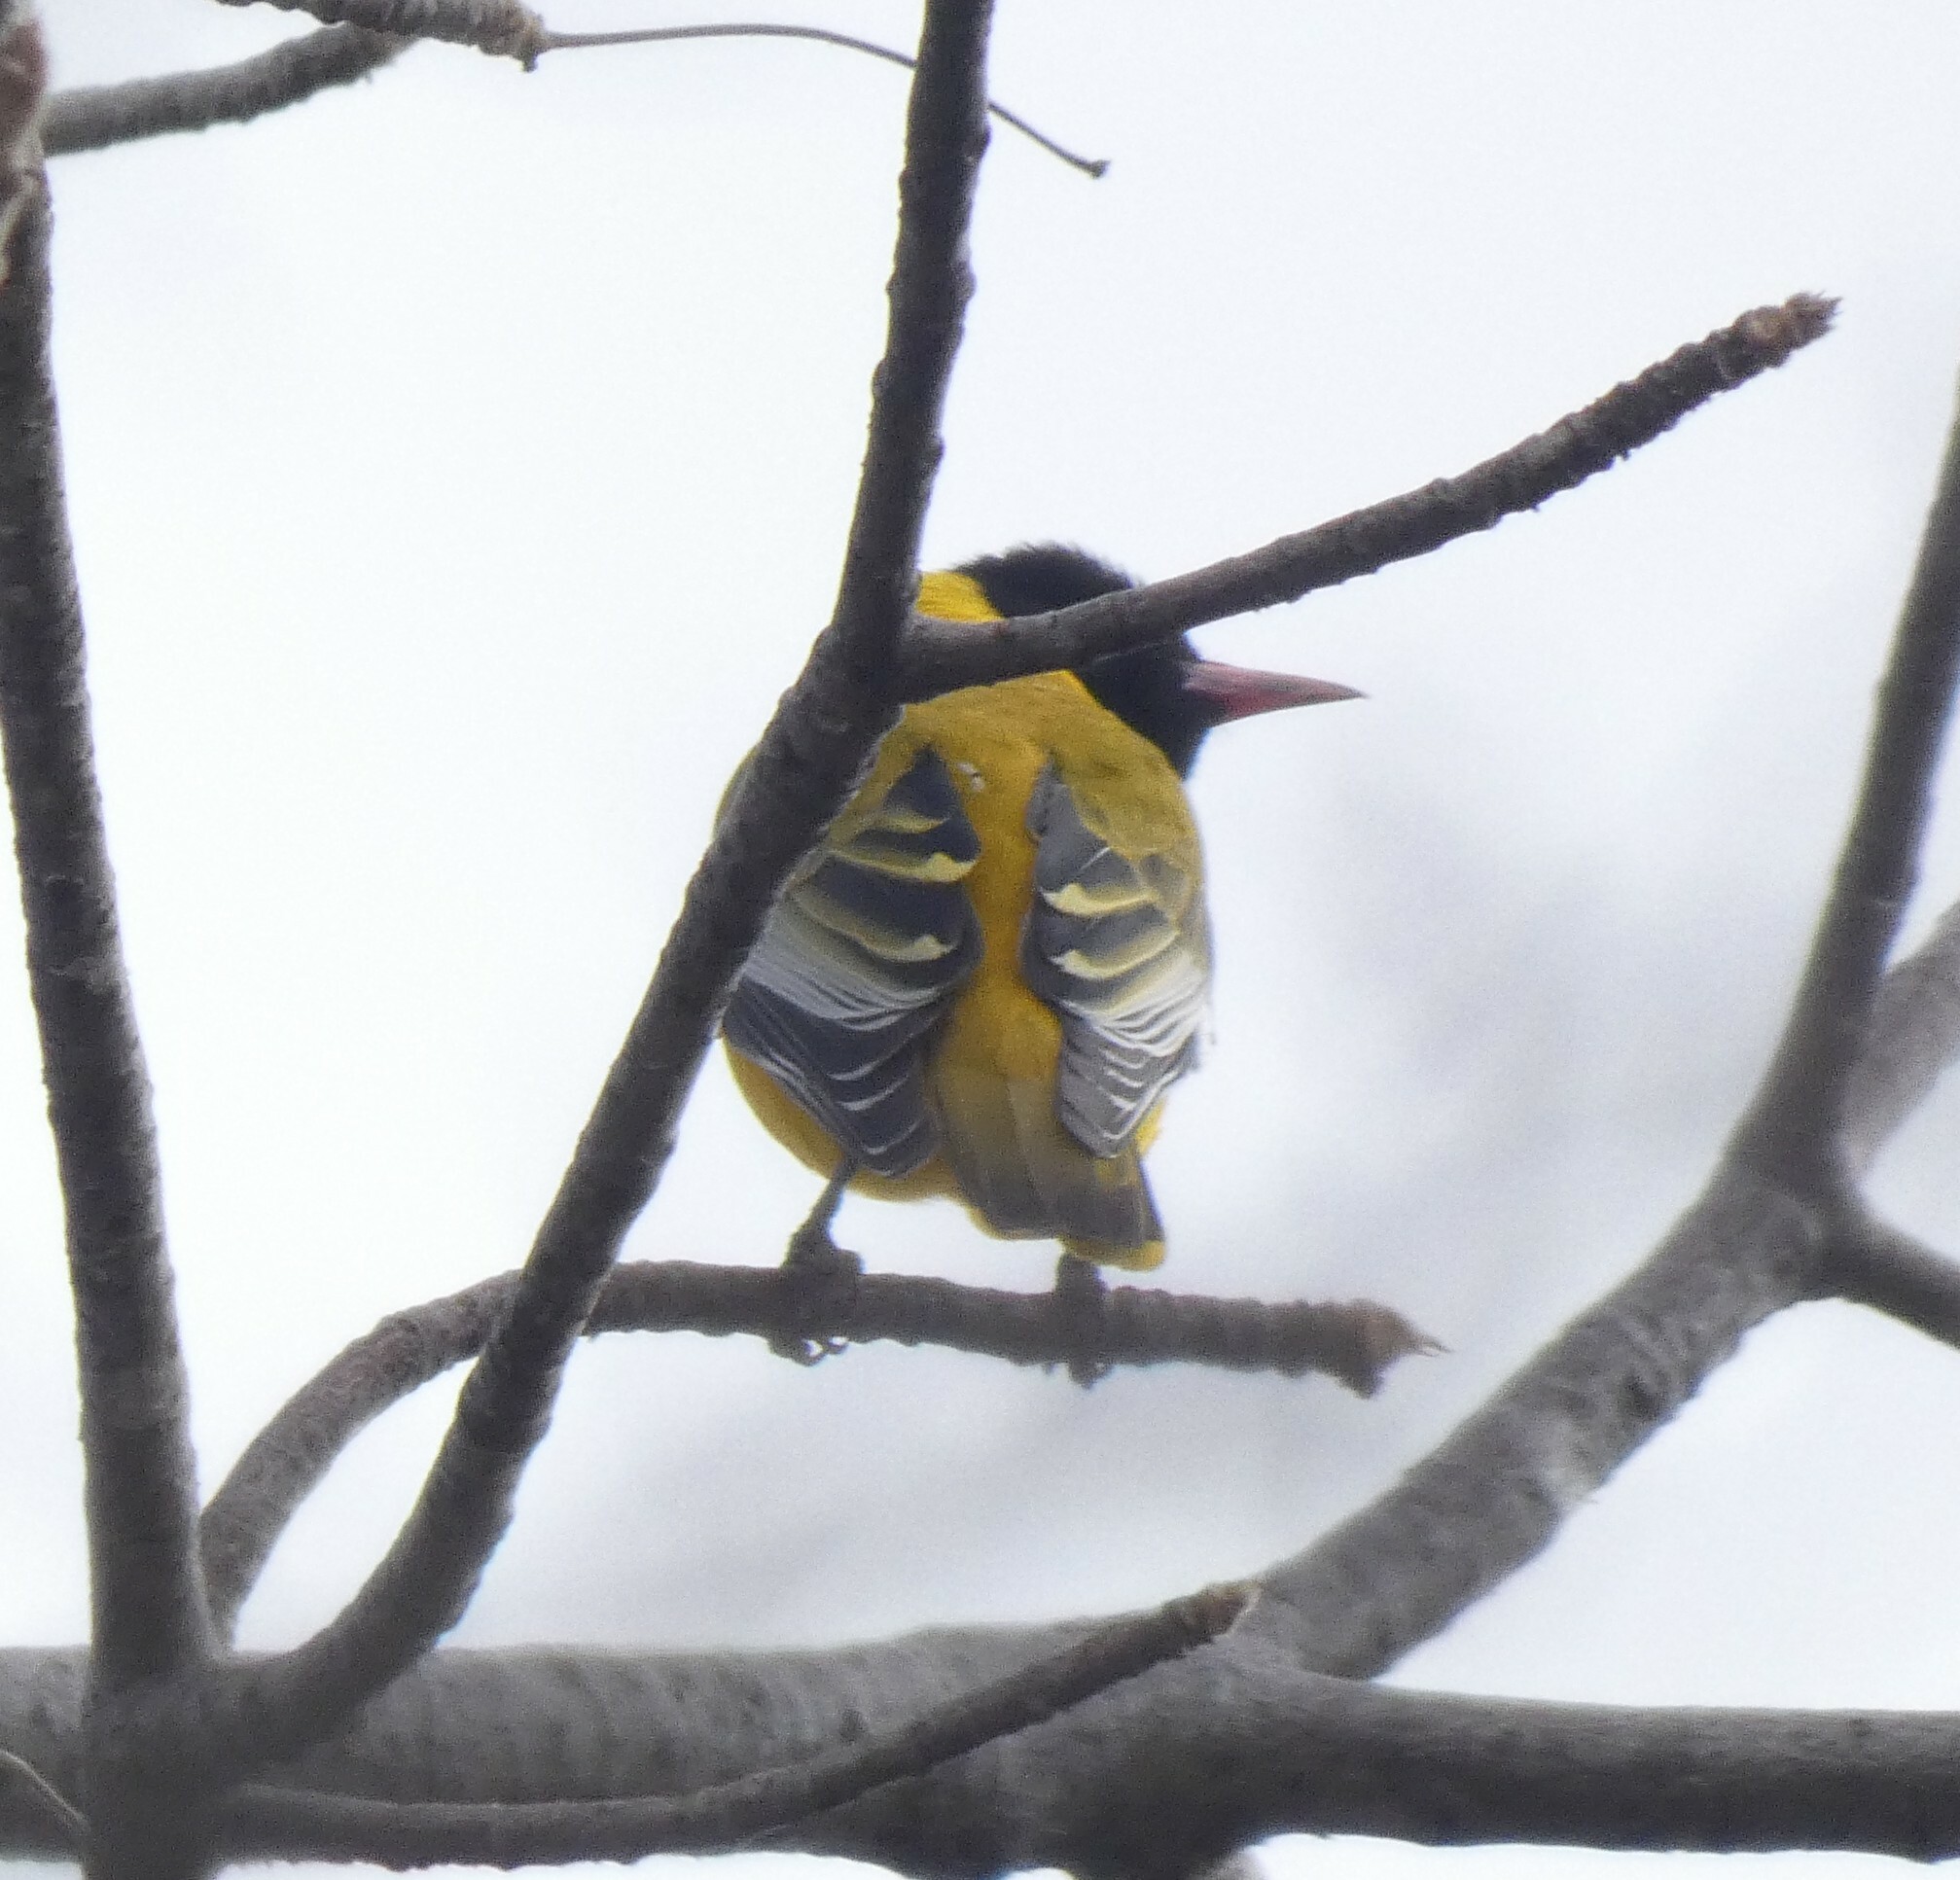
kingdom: Animalia
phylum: Chordata
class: Aves
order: Passeriformes
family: Oriolidae
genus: Oriolus
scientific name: Oriolus larvatus
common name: Black-headed oriole
